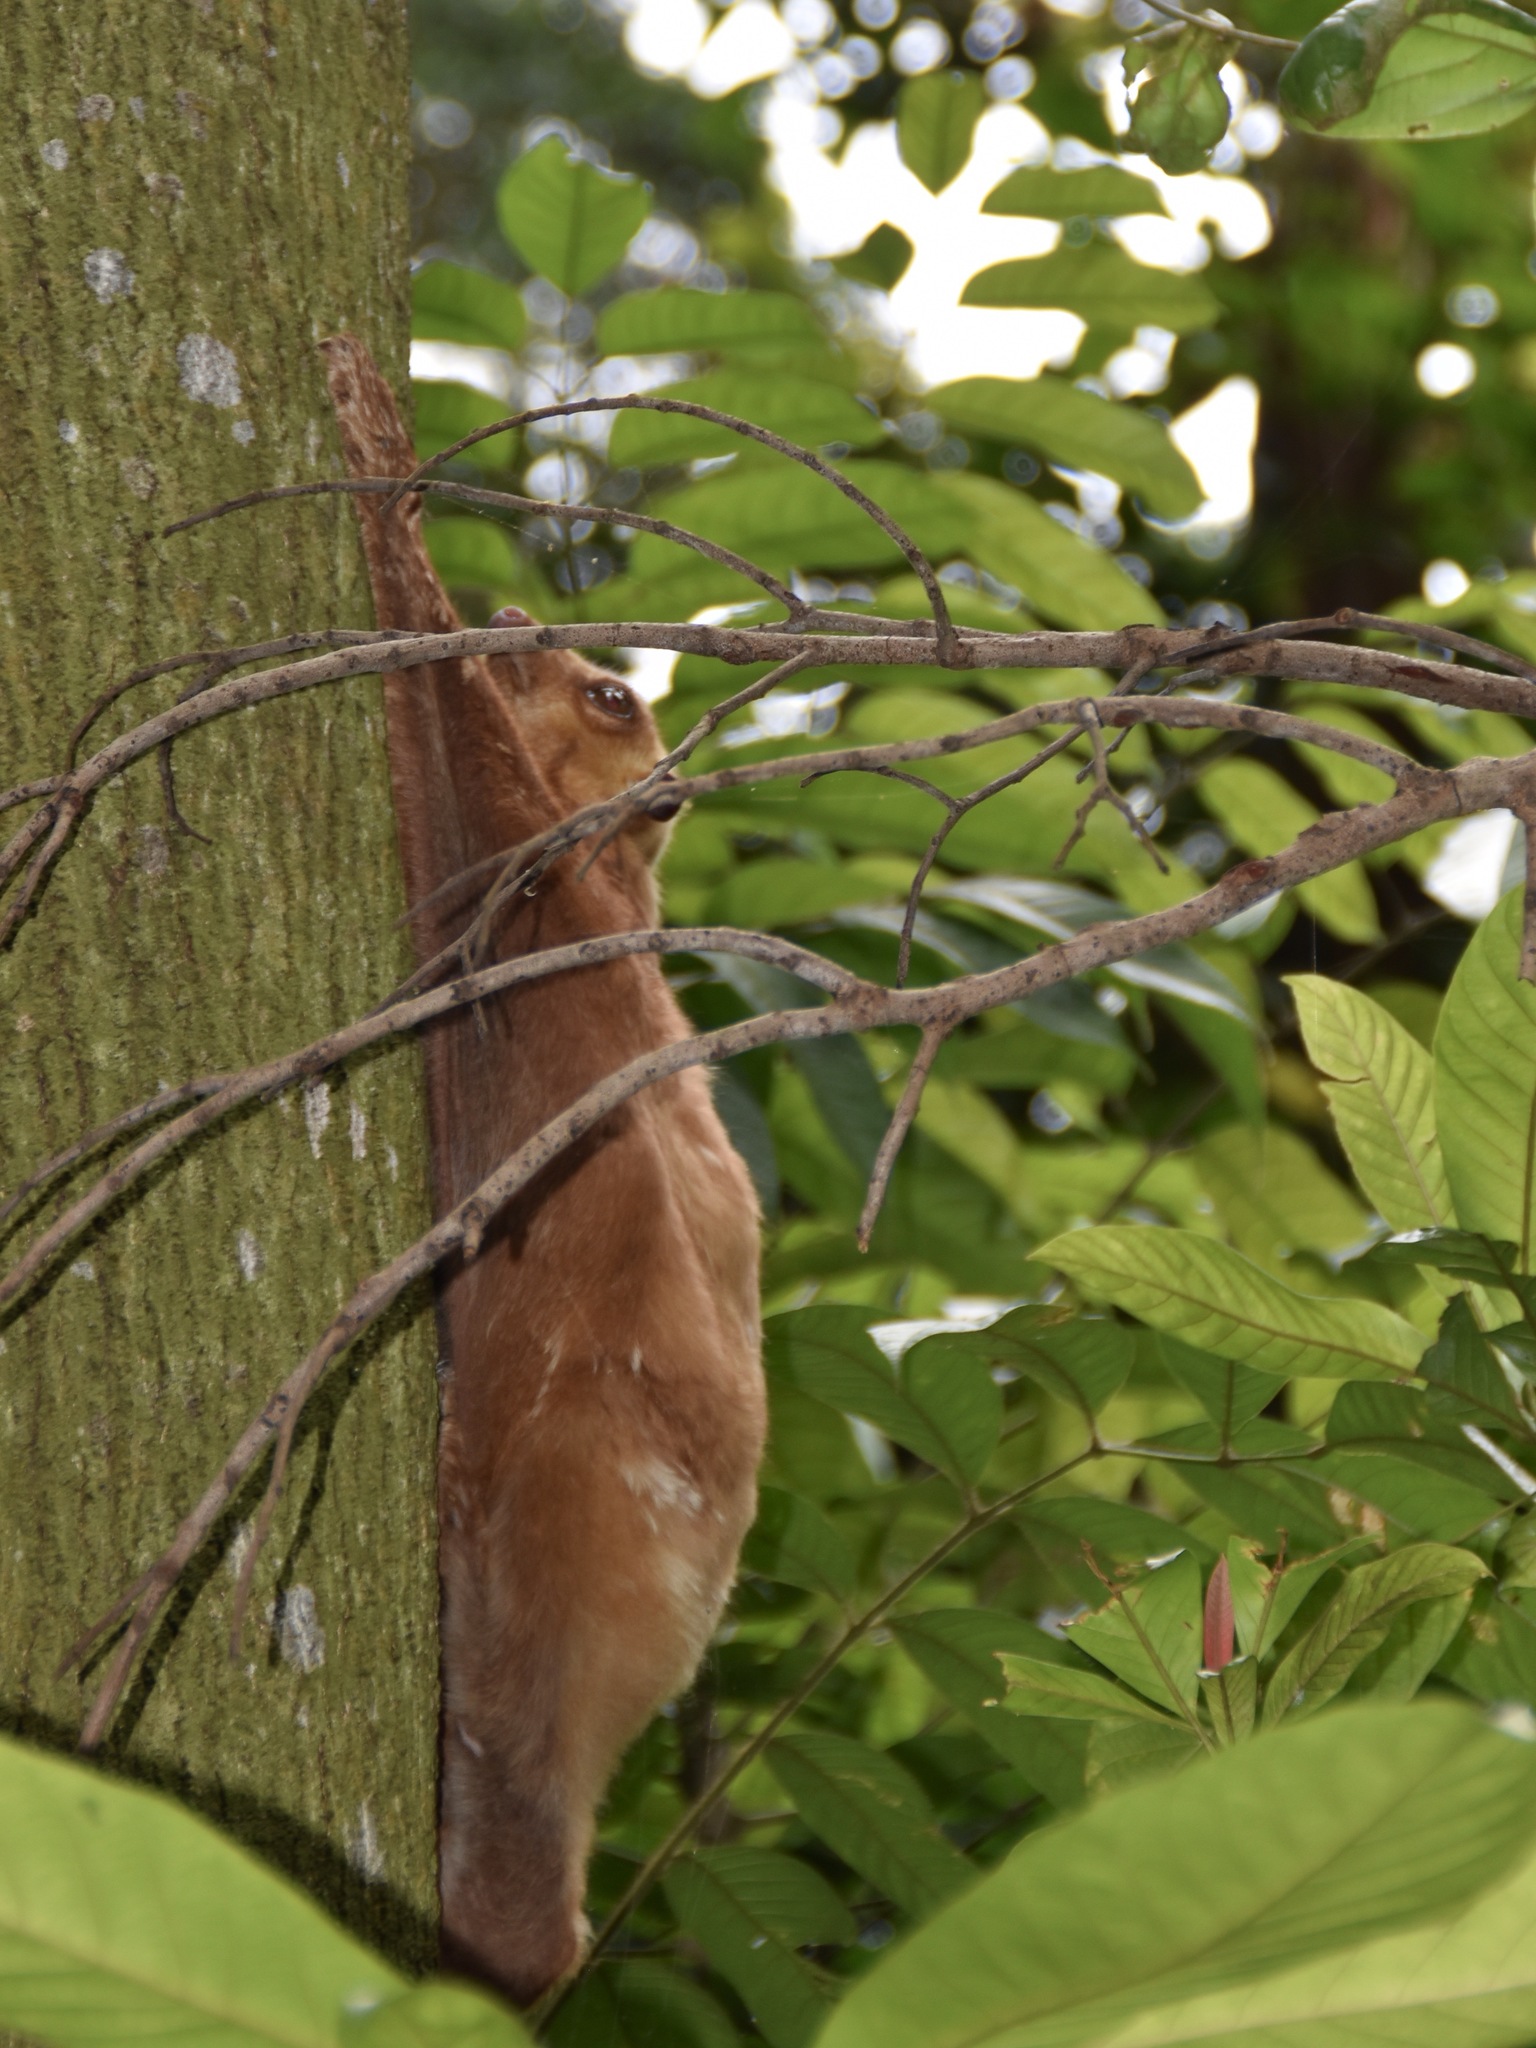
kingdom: Animalia
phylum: Chordata
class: Mammalia
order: Dermoptera
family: Cynocephalidae
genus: Galeopterus
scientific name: Galeopterus variegatus
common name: Sunda flying lemur
